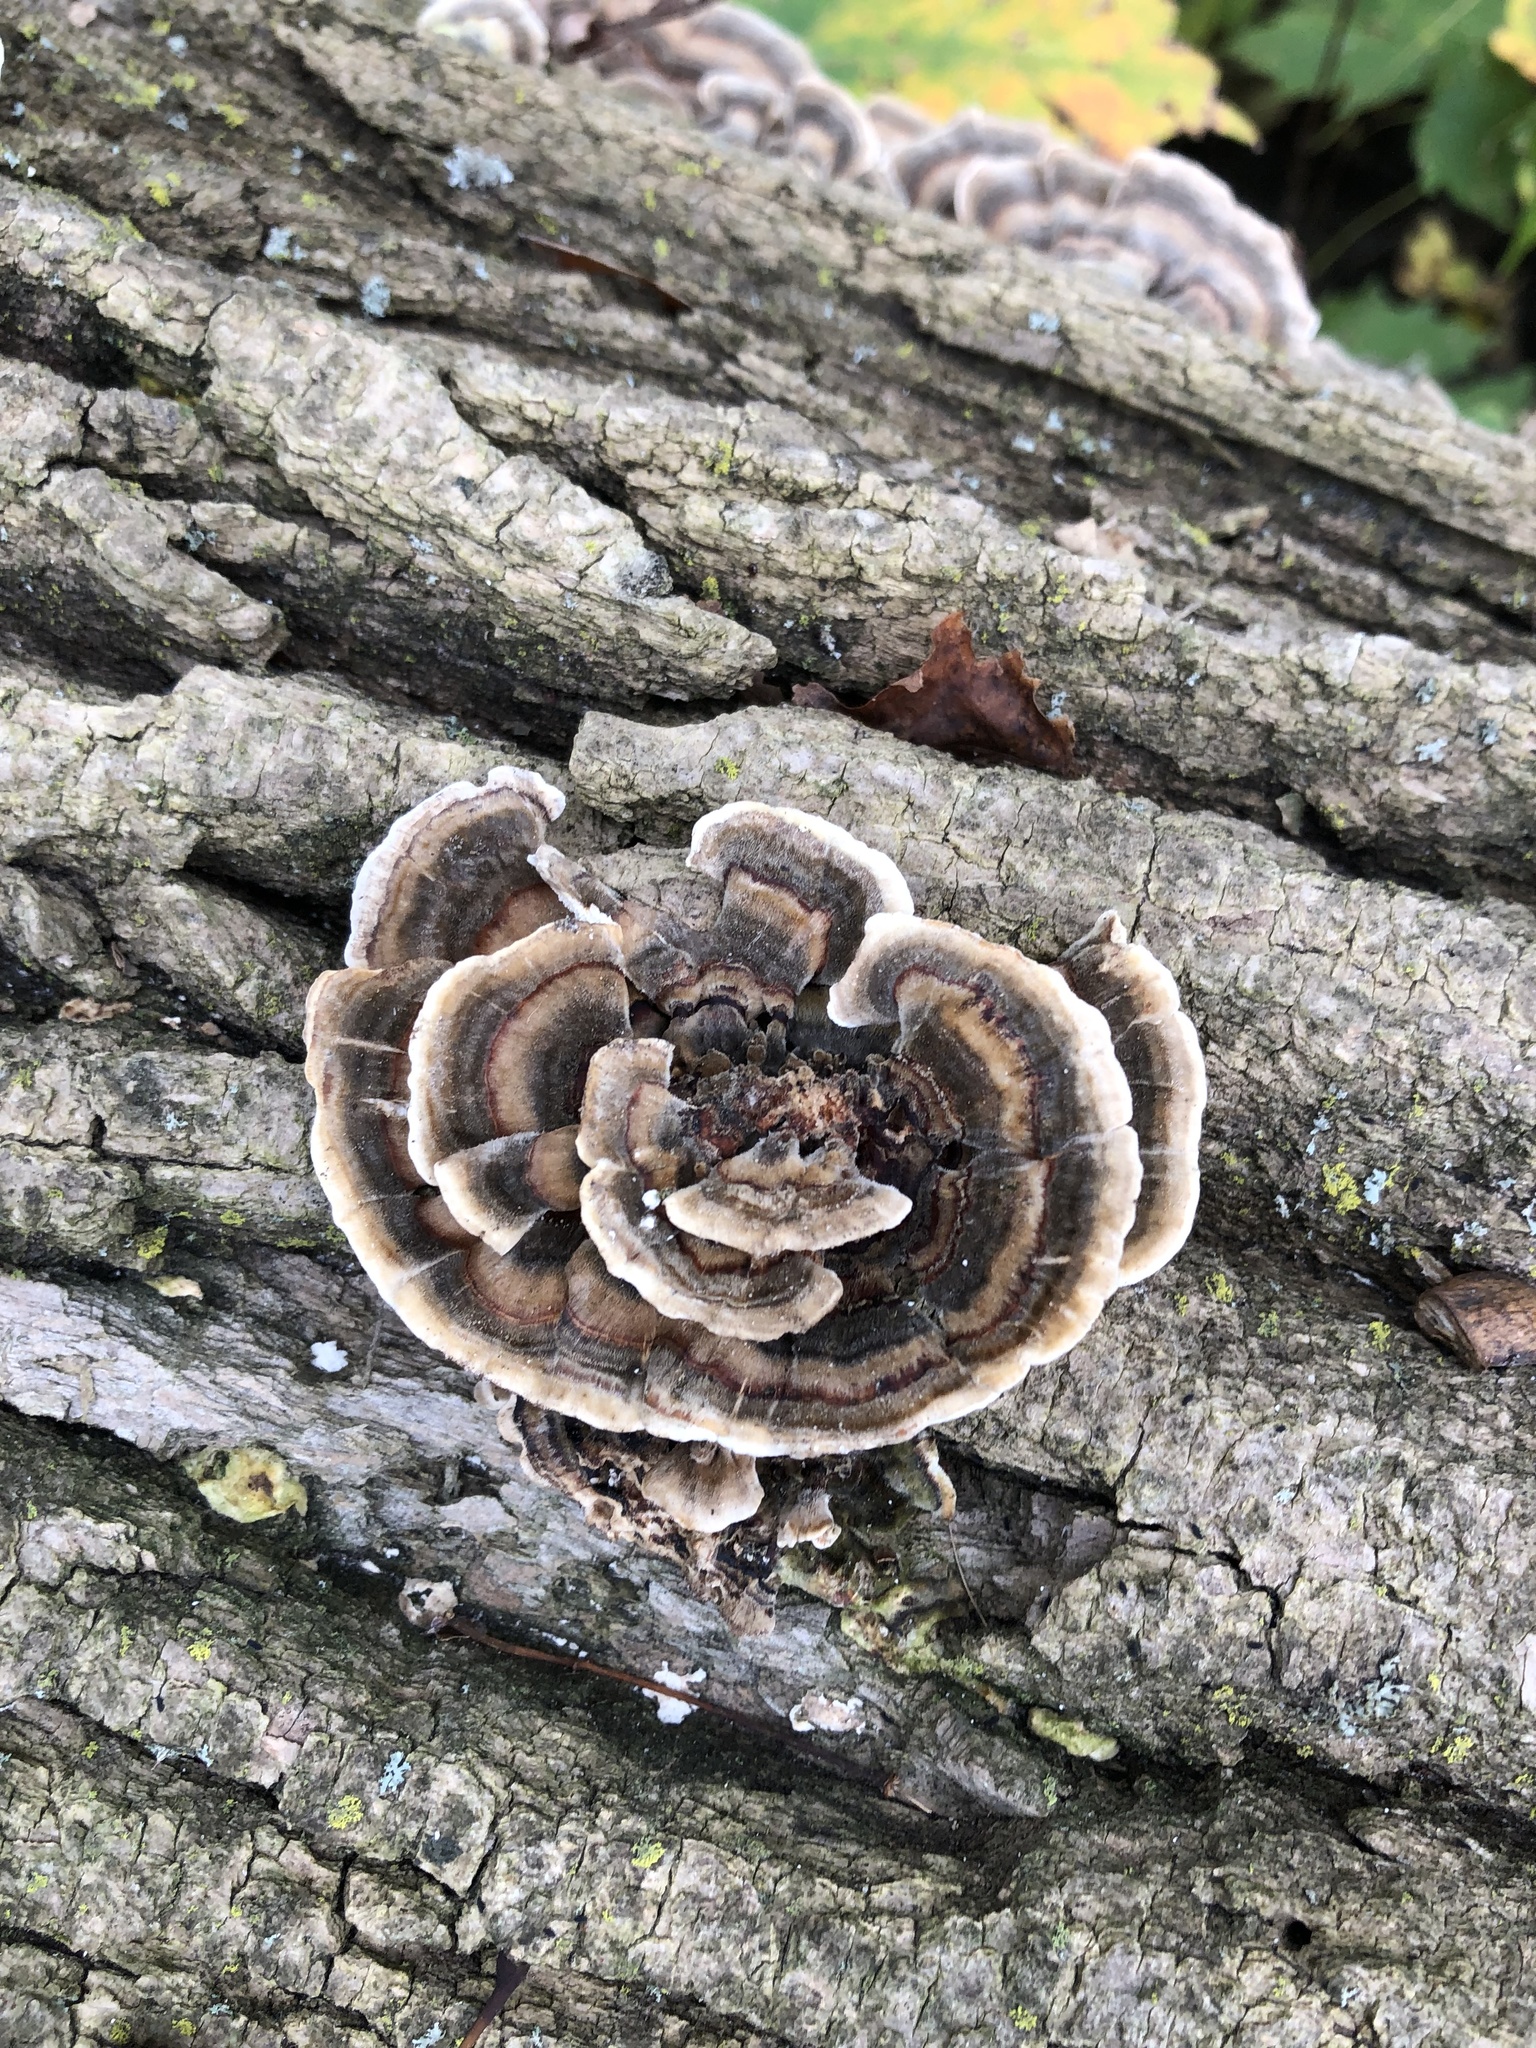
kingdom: Fungi
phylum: Basidiomycota
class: Agaricomycetes
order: Polyporales
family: Polyporaceae
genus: Trametes
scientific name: Trametes versicolor
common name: Turkeytail
